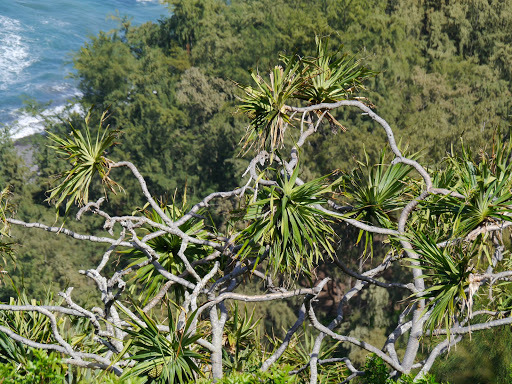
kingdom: Plantae
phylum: Tracheophyta
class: Liliopsida
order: Pandanales
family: Pandanaceae
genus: Pandanus
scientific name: Pandanus tectorius
